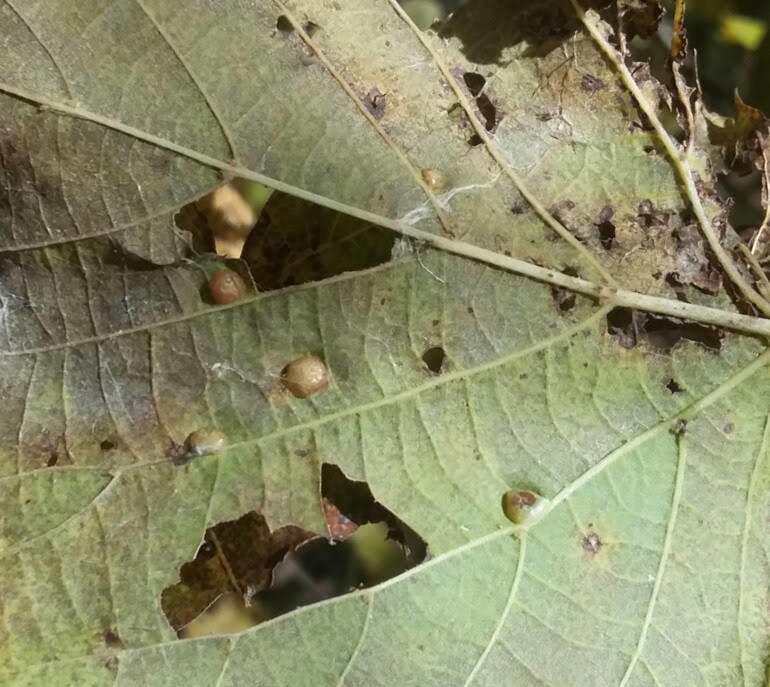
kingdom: Animalia
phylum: Arthropoda
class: Insecta
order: Diptera
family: Cecidomyiidae
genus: Contarinia
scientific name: Contarinia verrucicola
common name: Linden wart gall midge
